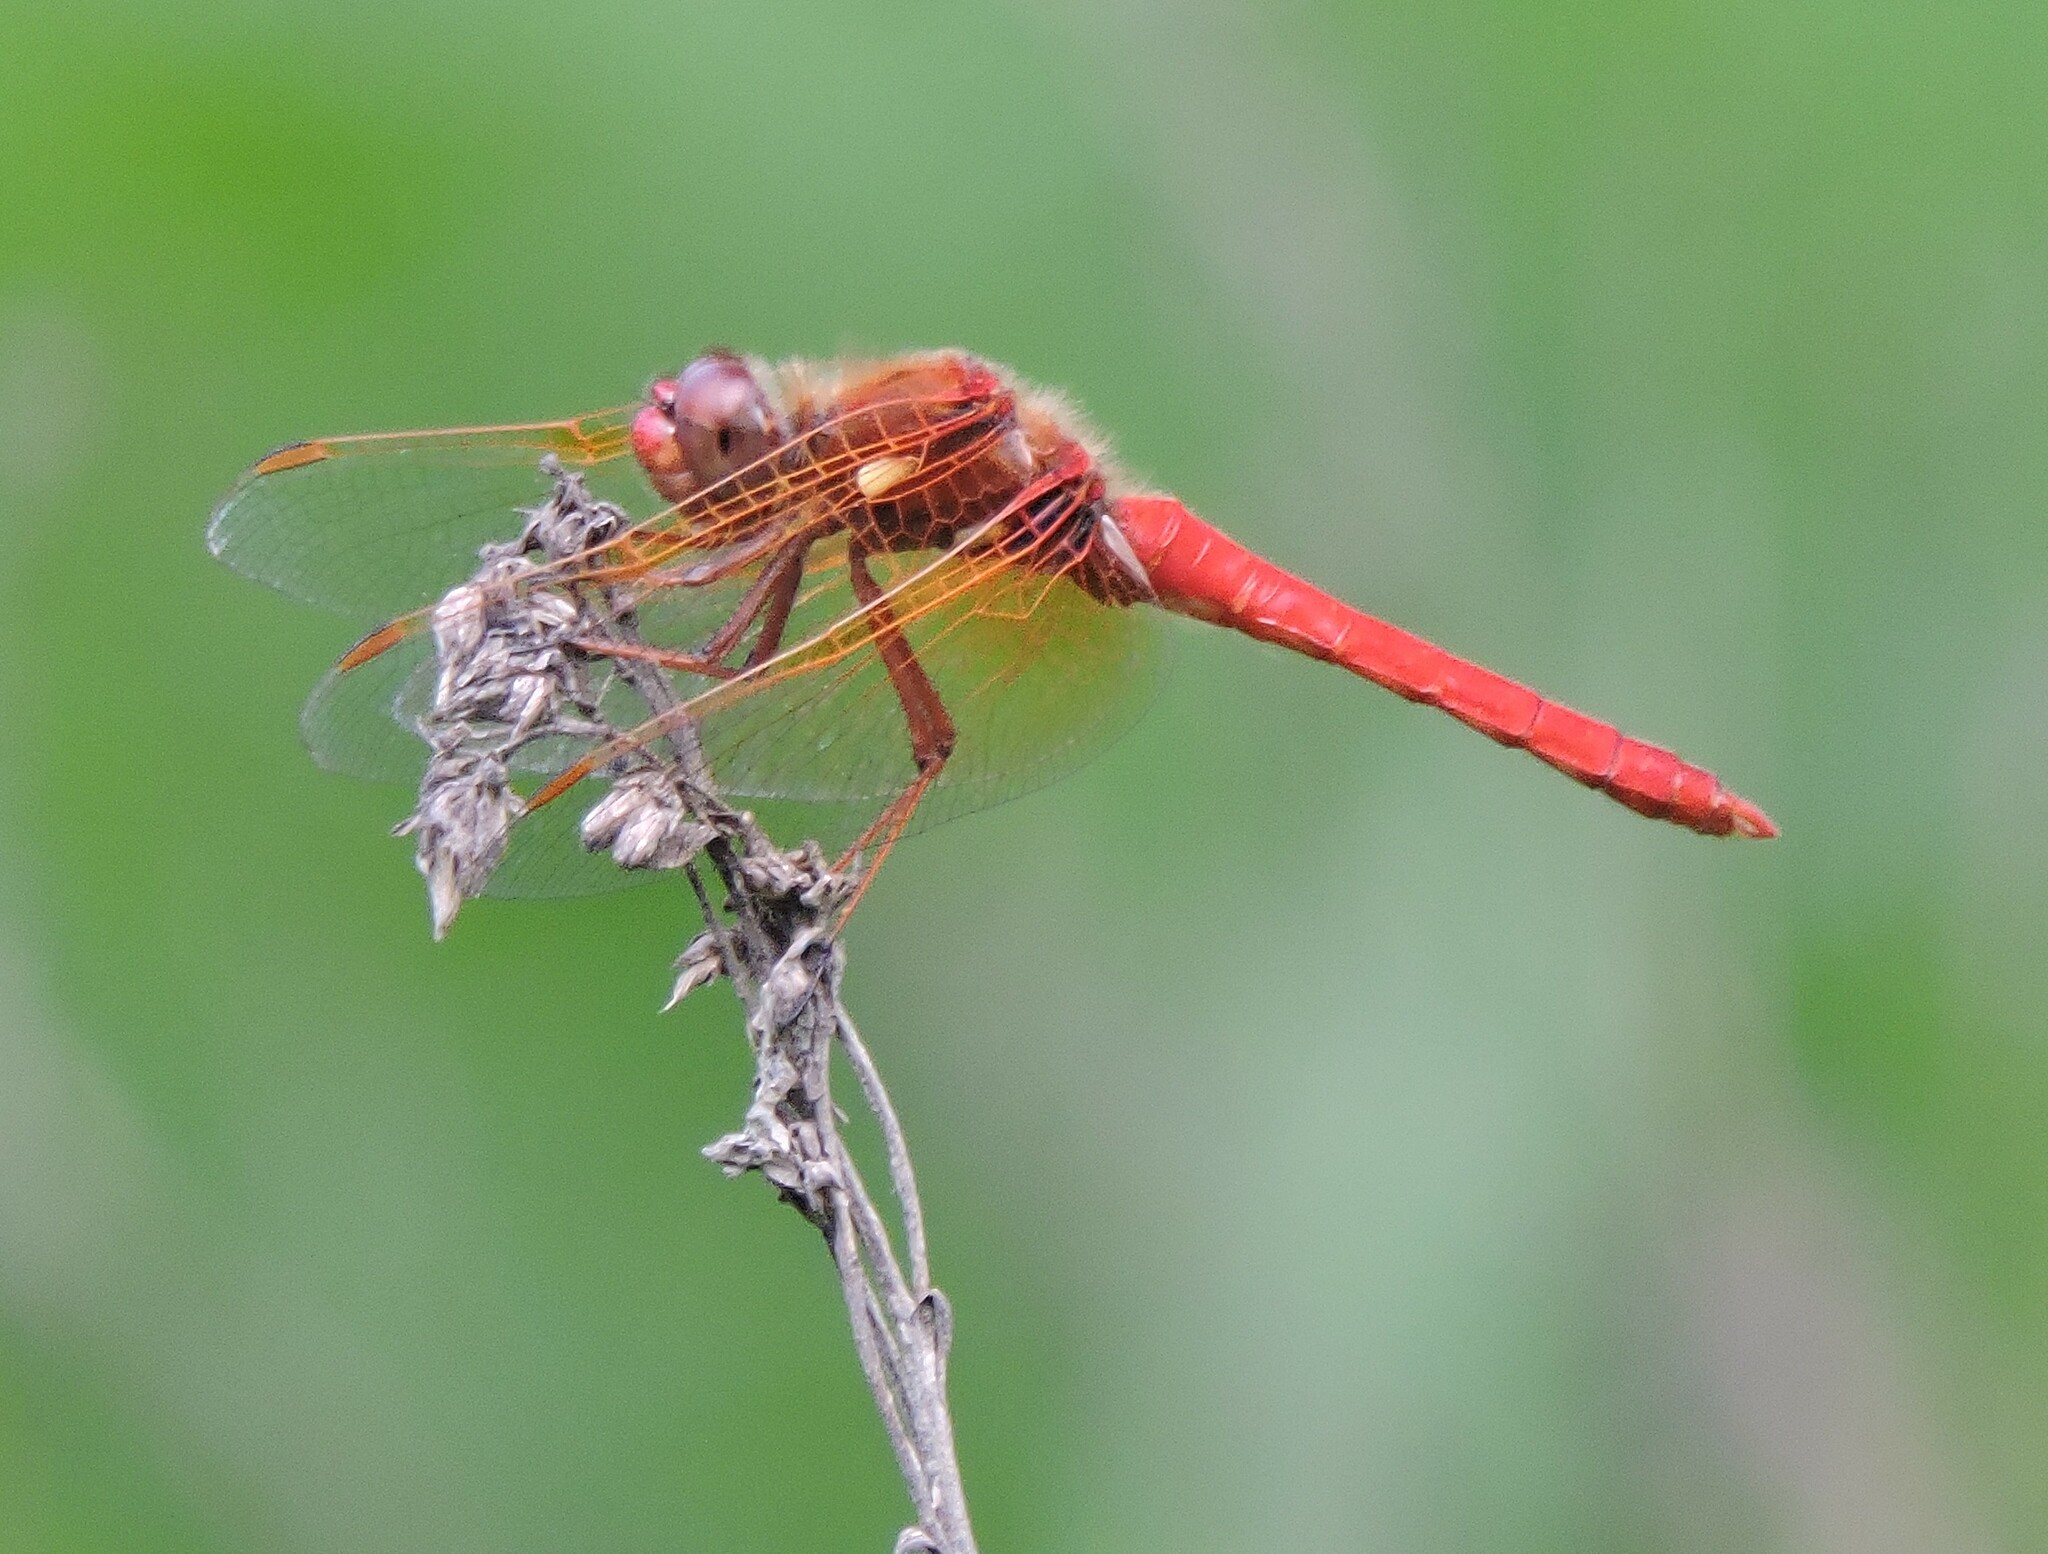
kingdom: Animalia
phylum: Arthropoda
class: Insecta
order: Odonata
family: Libellulidae
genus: Sympetrum
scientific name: Sympetrum illotum
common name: Cardinal meadowhawk
